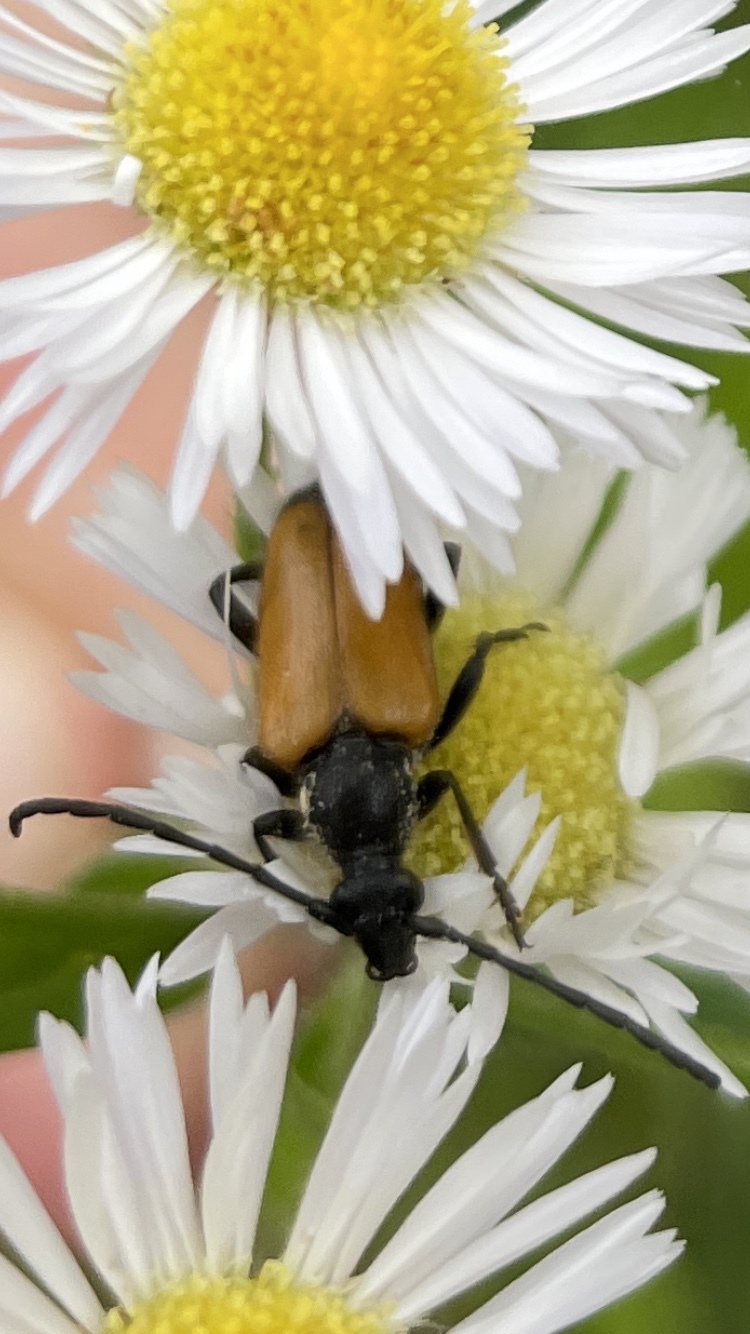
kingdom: Animalia
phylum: Arthropoda
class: Insecta
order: Coleoptera
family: Cerambycidae
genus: Paracorymbia
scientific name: Paracorymbia fulva
